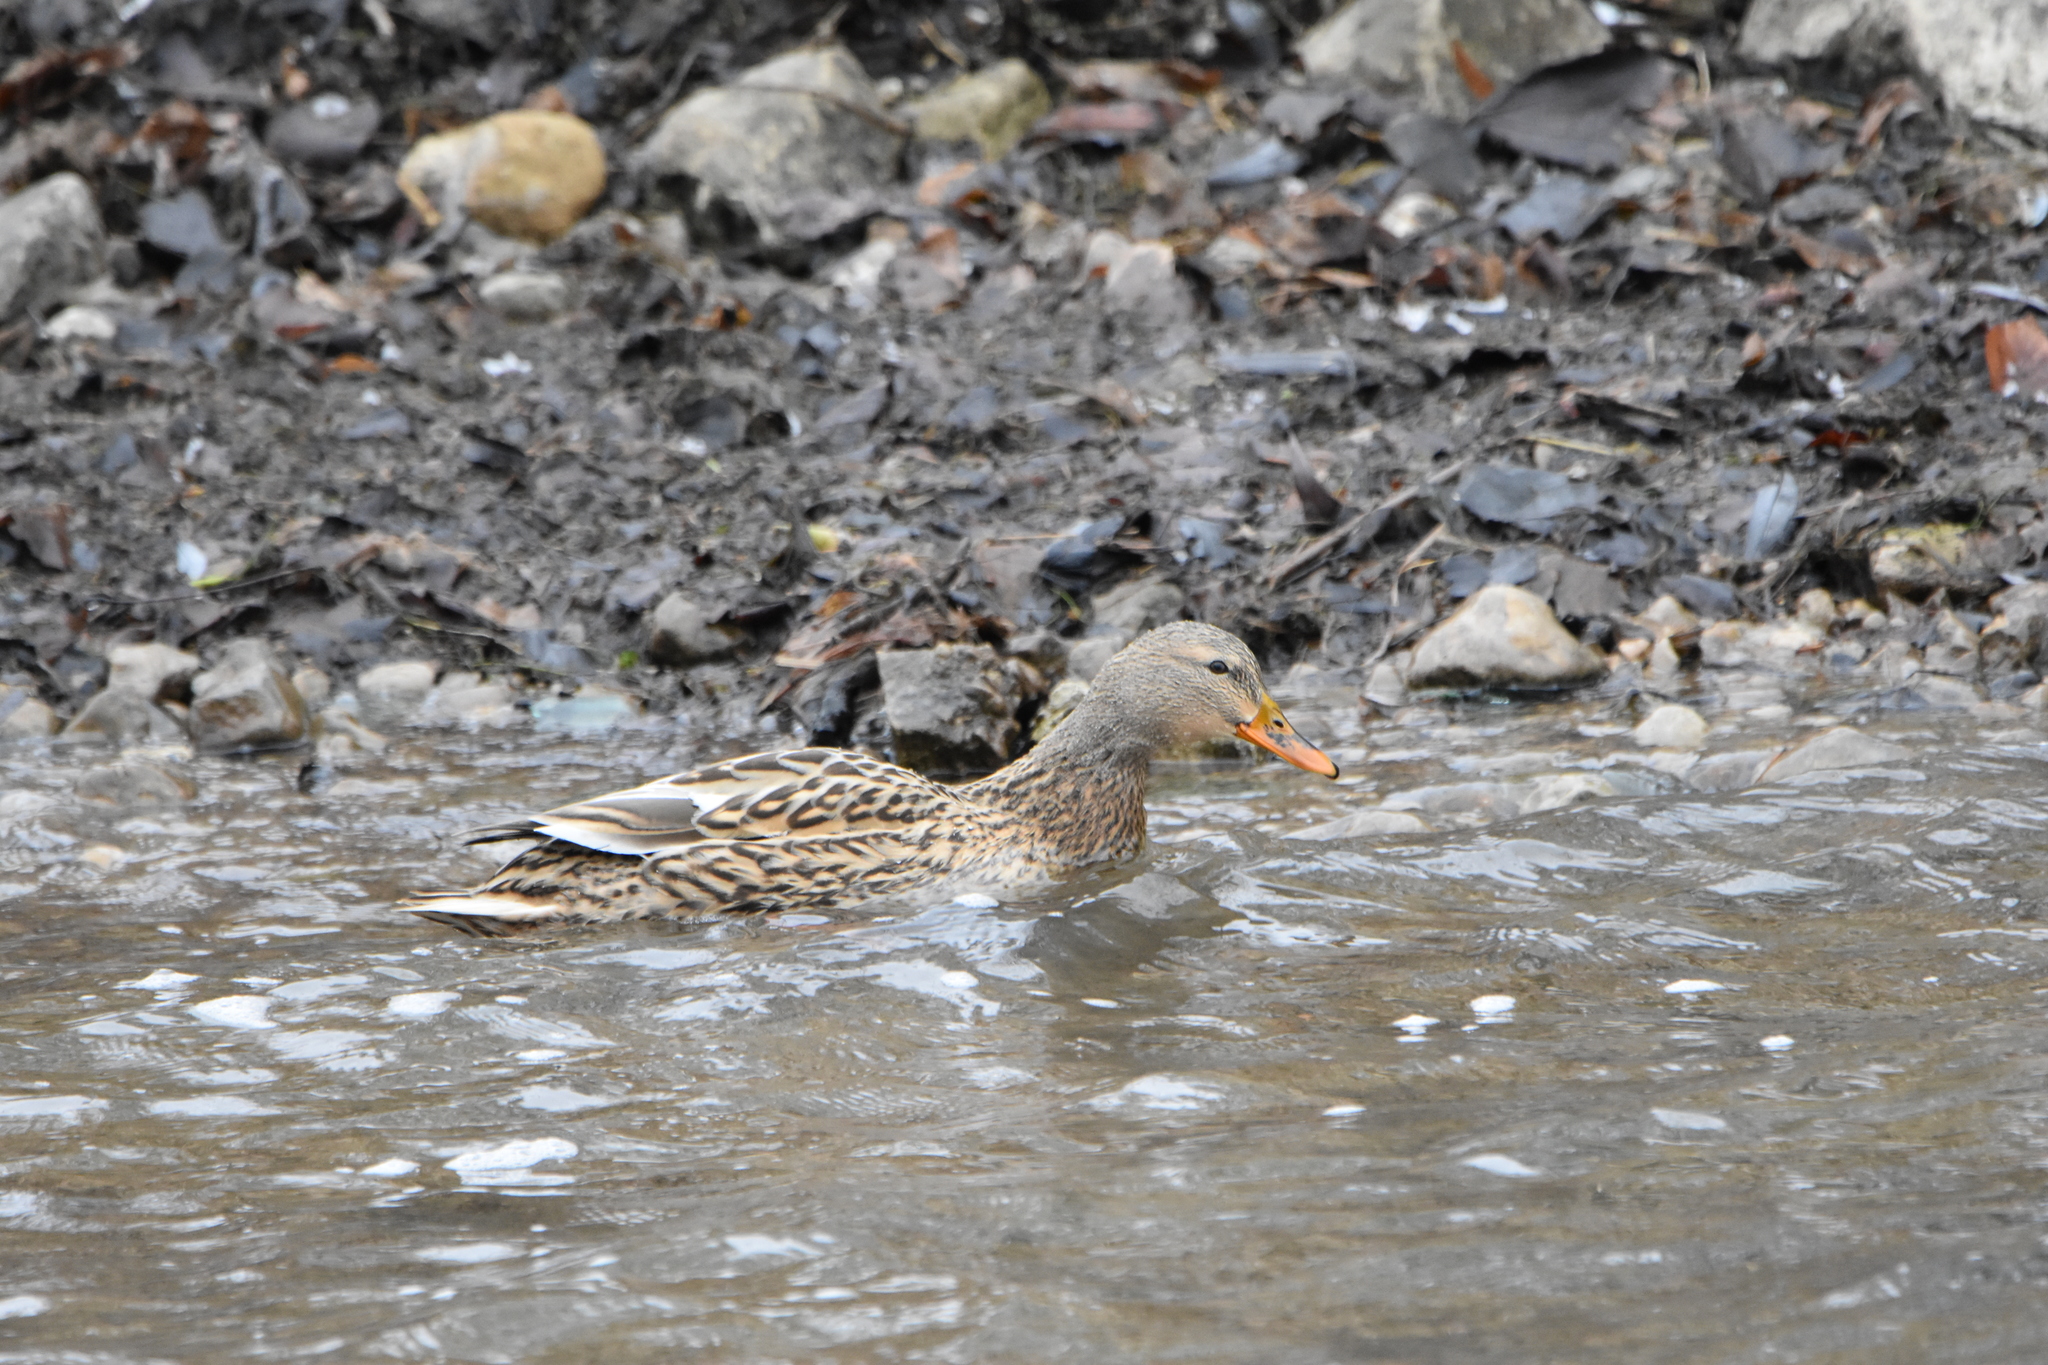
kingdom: Animalia
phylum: Chordata
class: Aves
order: Anseriformes
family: Anatidae
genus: Anas
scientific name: Anas platyrhynchos
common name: Mallard
